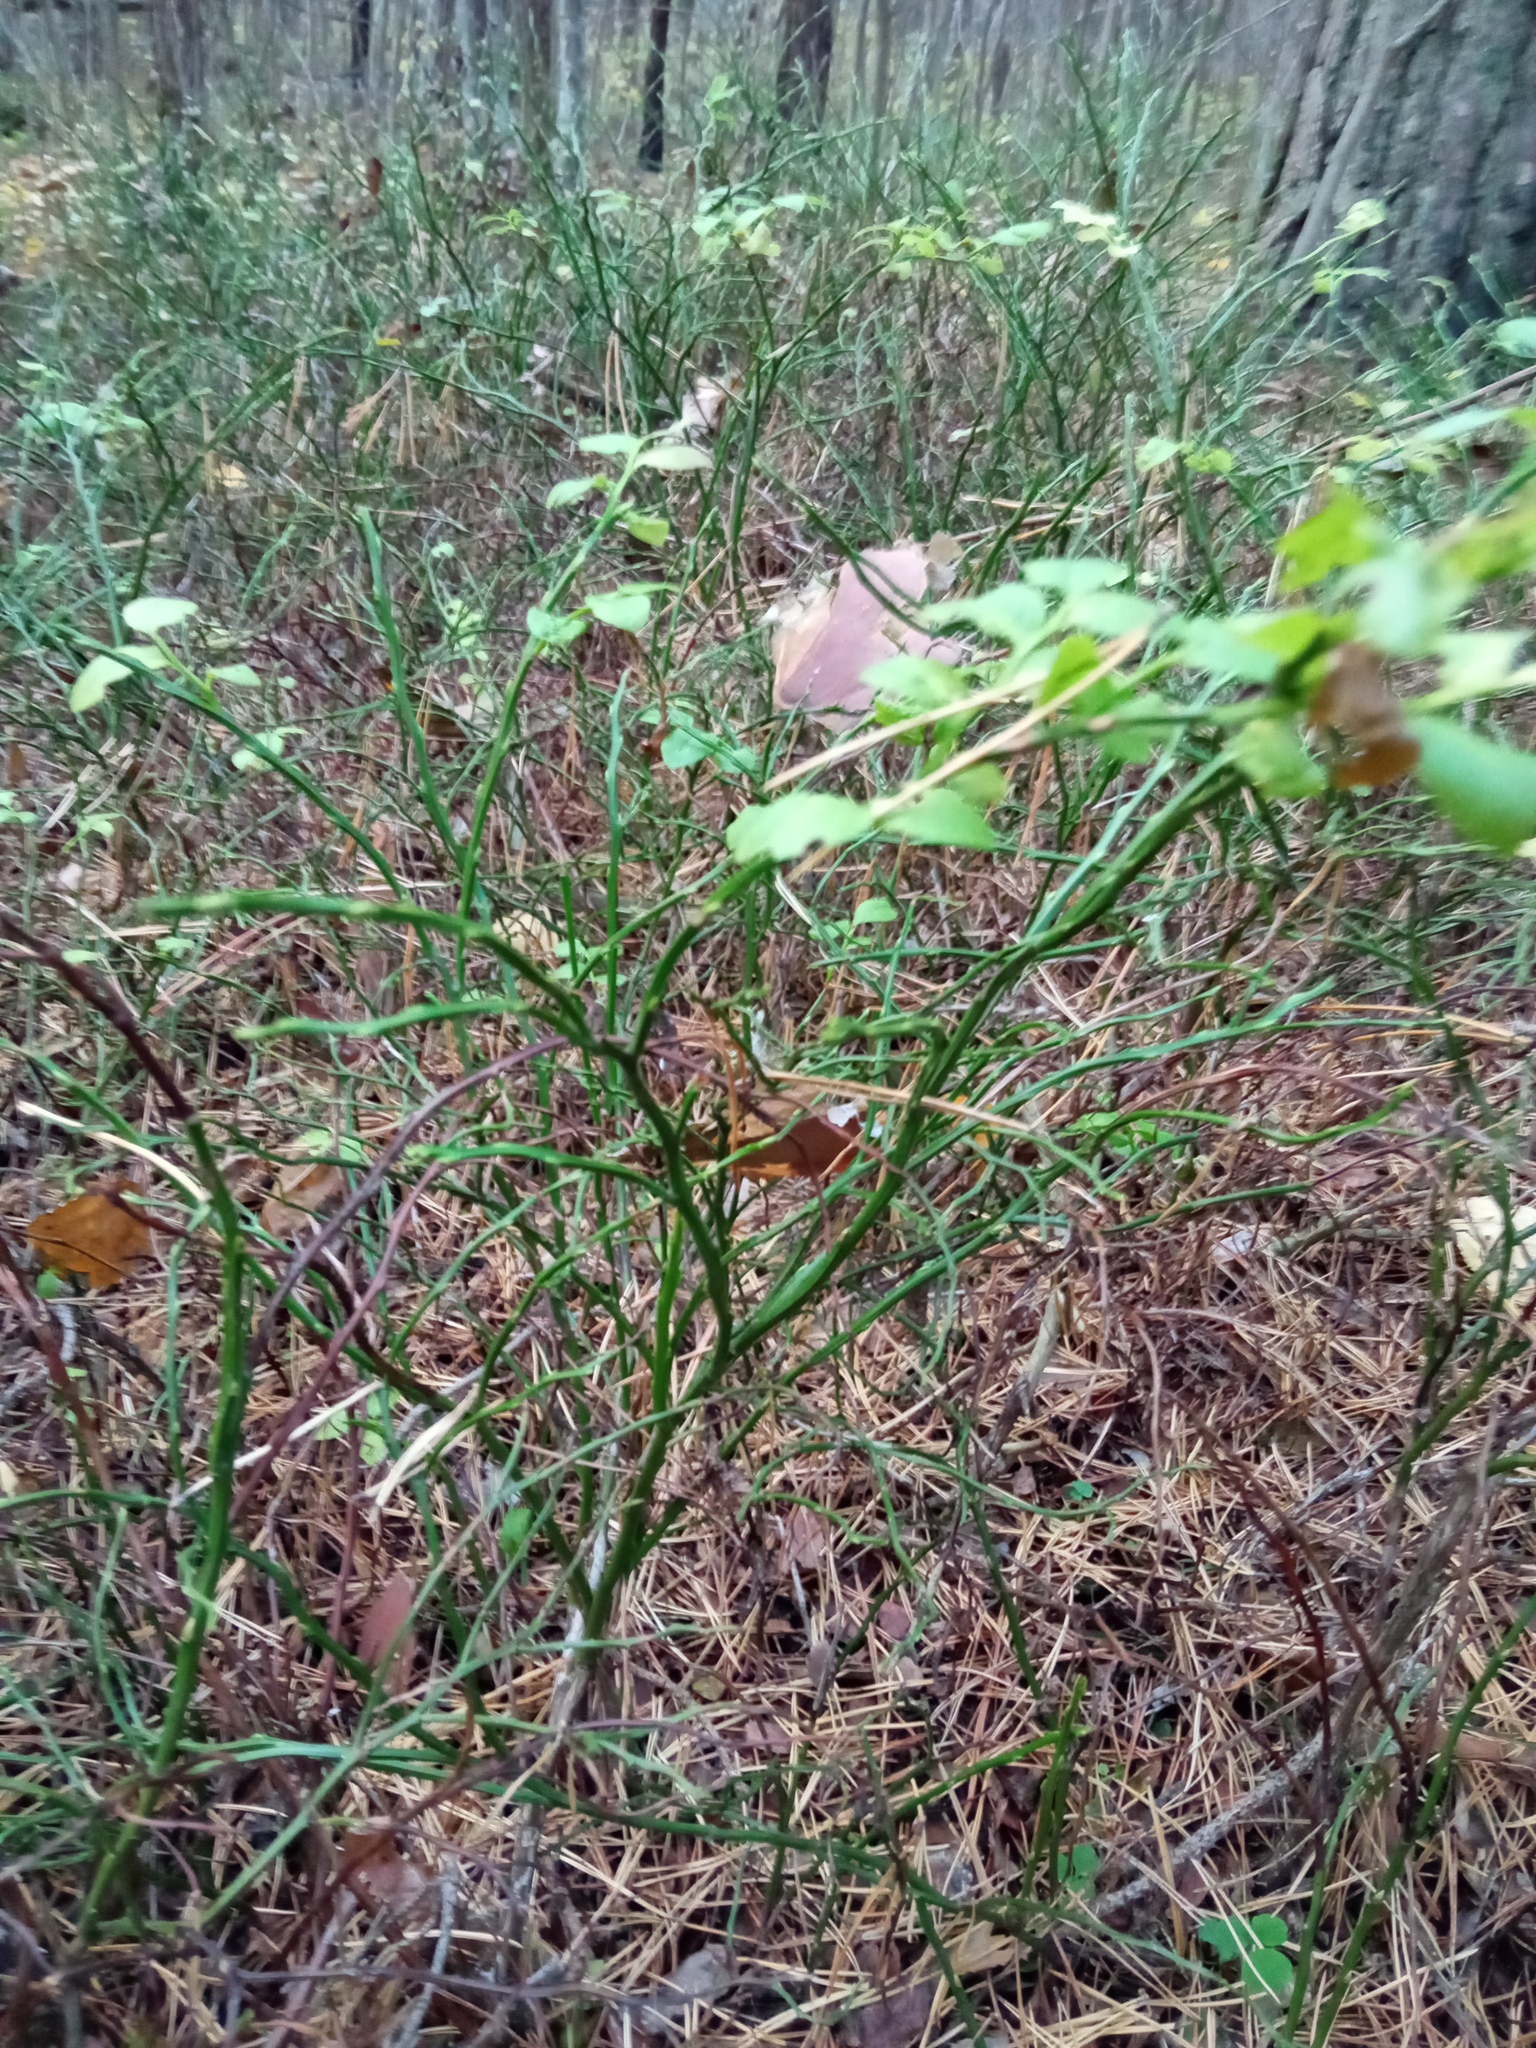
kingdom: Plantae
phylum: Tracheophyta
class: Magnoliopsida
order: Ericales
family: Ericaceae
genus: Vaccinium
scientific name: Vaccinium myrtillus
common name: Bilberry
